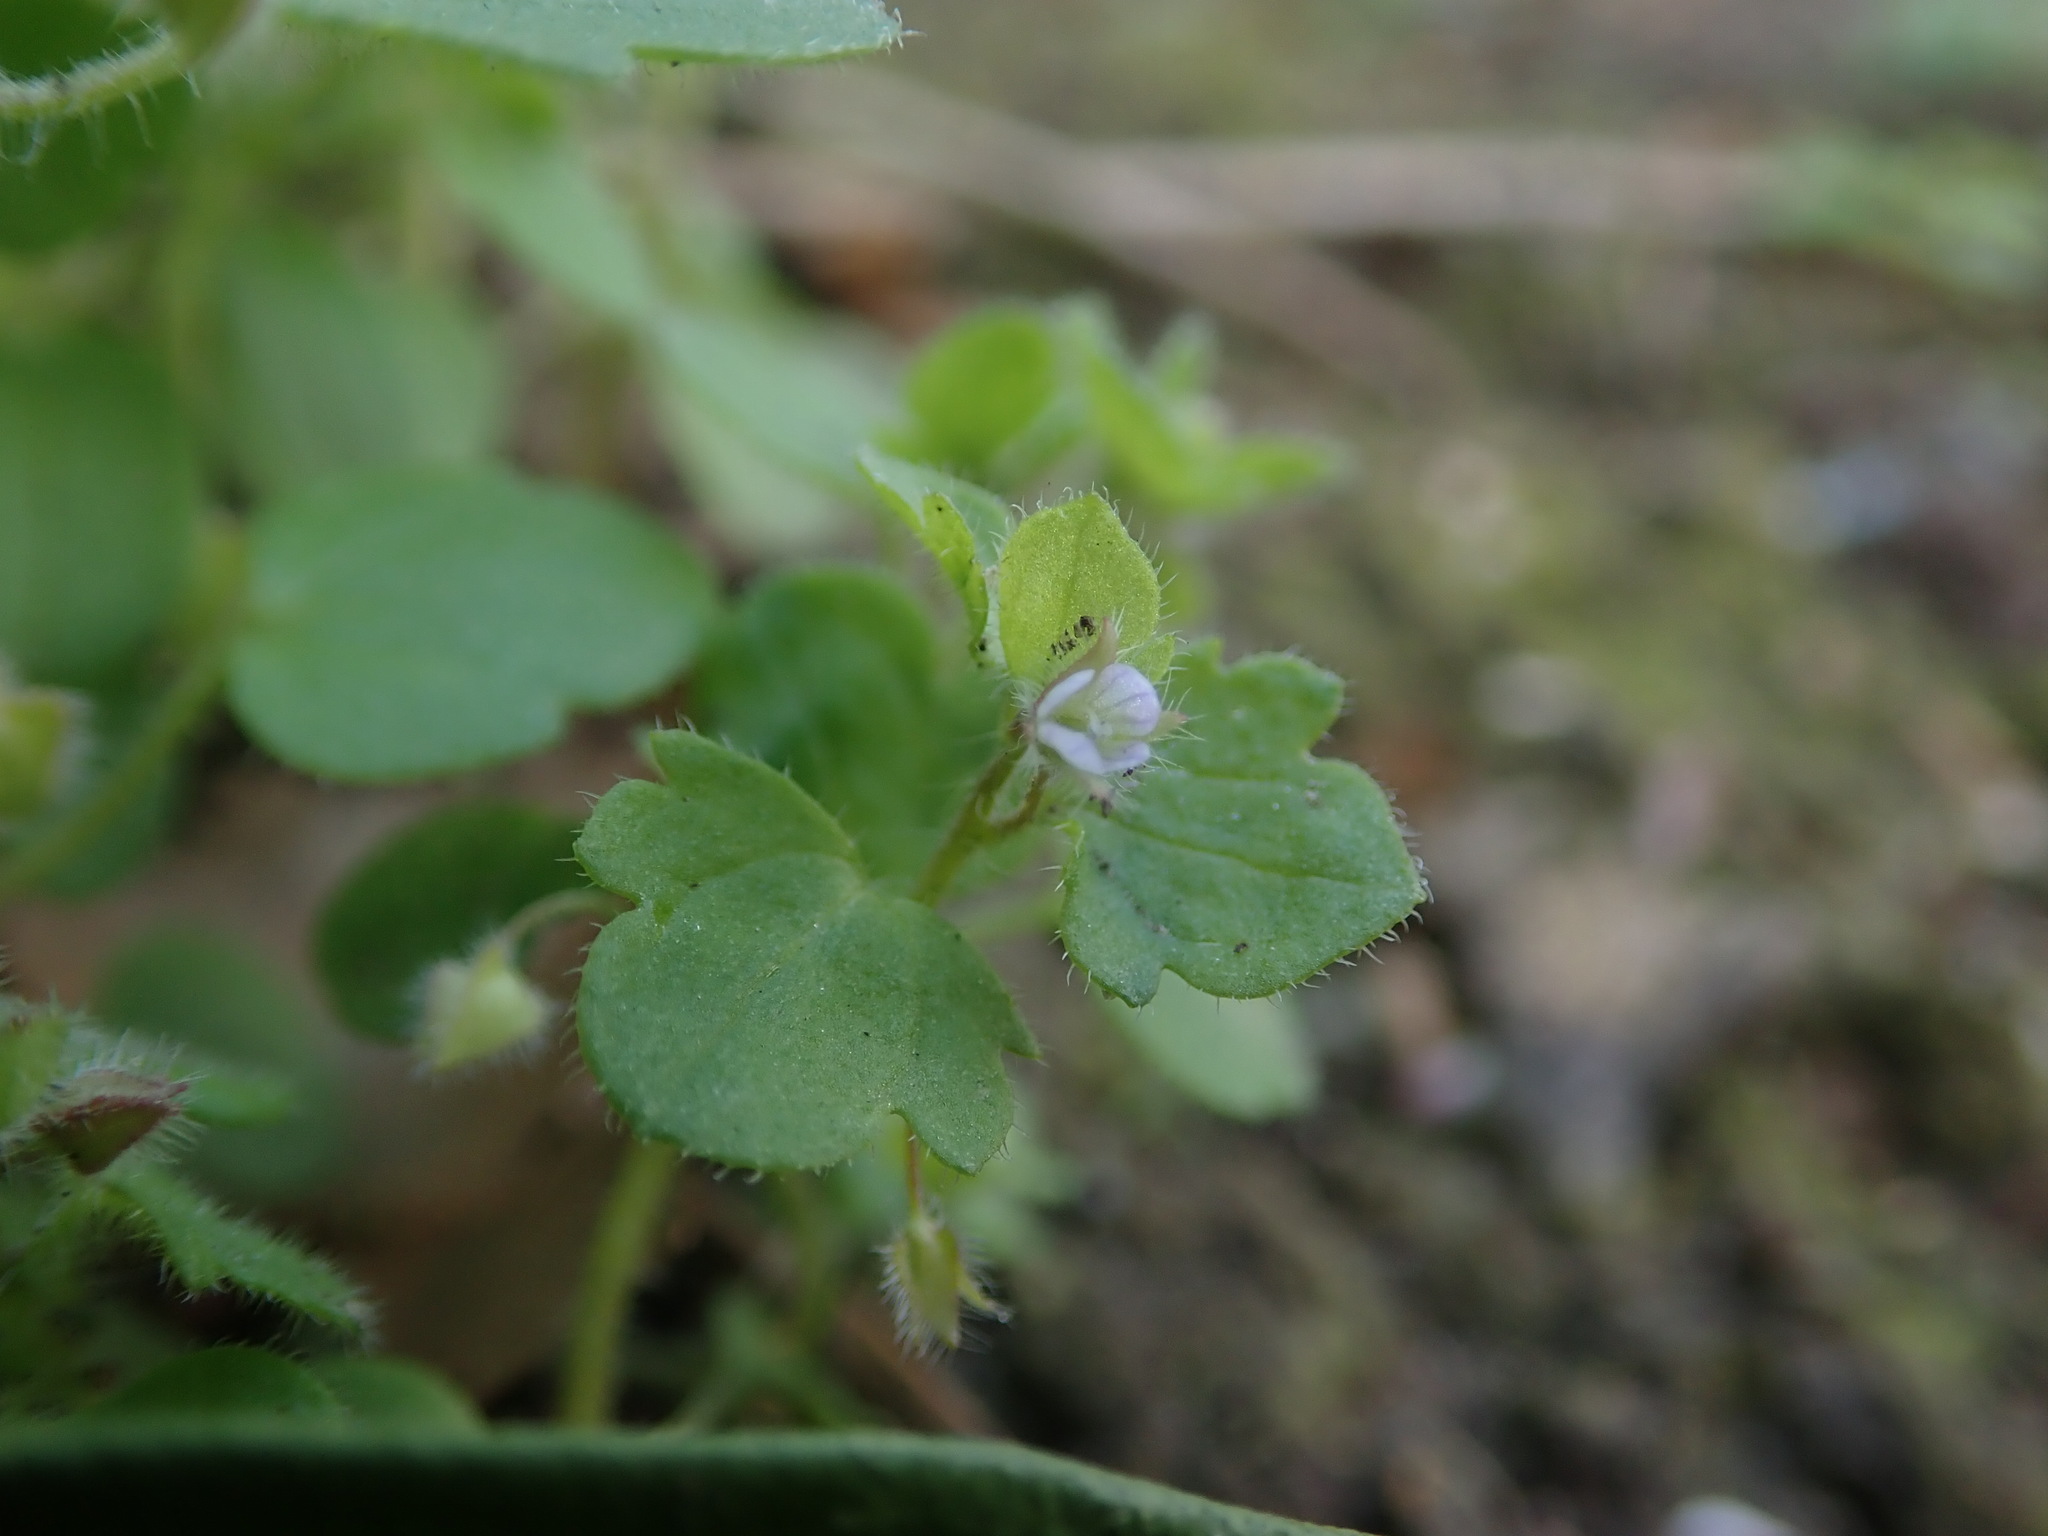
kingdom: Plantae
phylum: Tracheophyta
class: Magnoliopsida
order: Lamiales
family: Plantaginaceae
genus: Veronica
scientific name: Veronica sublobata
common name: False ivy-leaved speedwell
